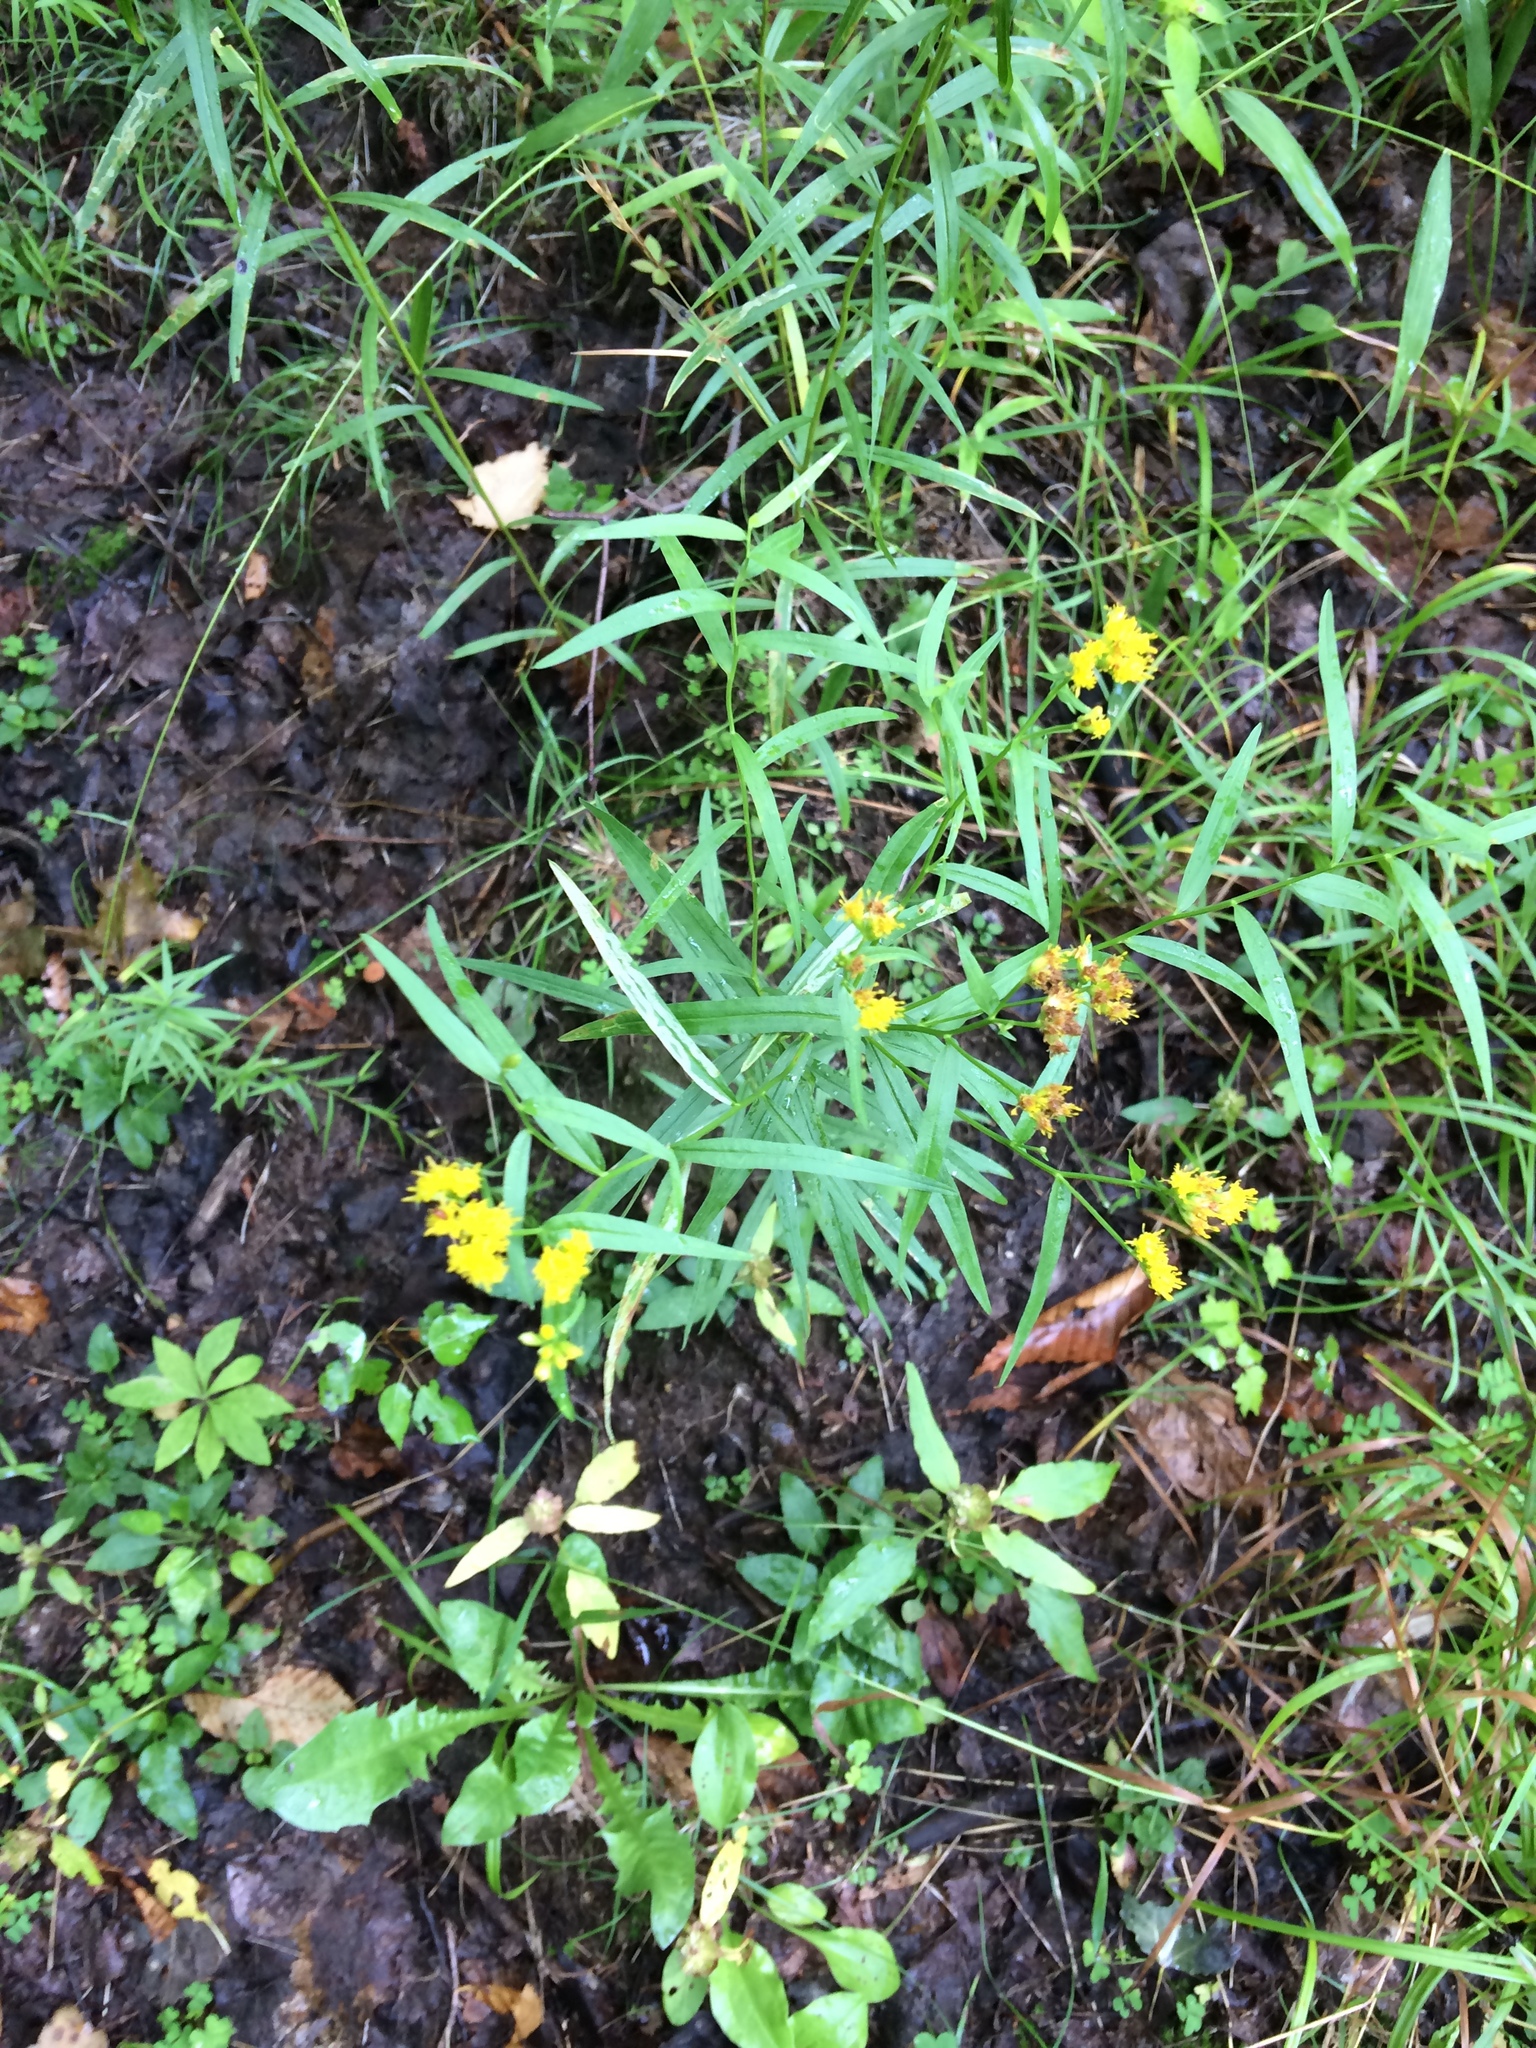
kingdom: Plantae
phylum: Tracheophyta
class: Magnoliopsida
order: Asterales
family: Asteraceae
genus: Euthamia
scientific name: Euthamia graminifolia
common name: Common goldentop
